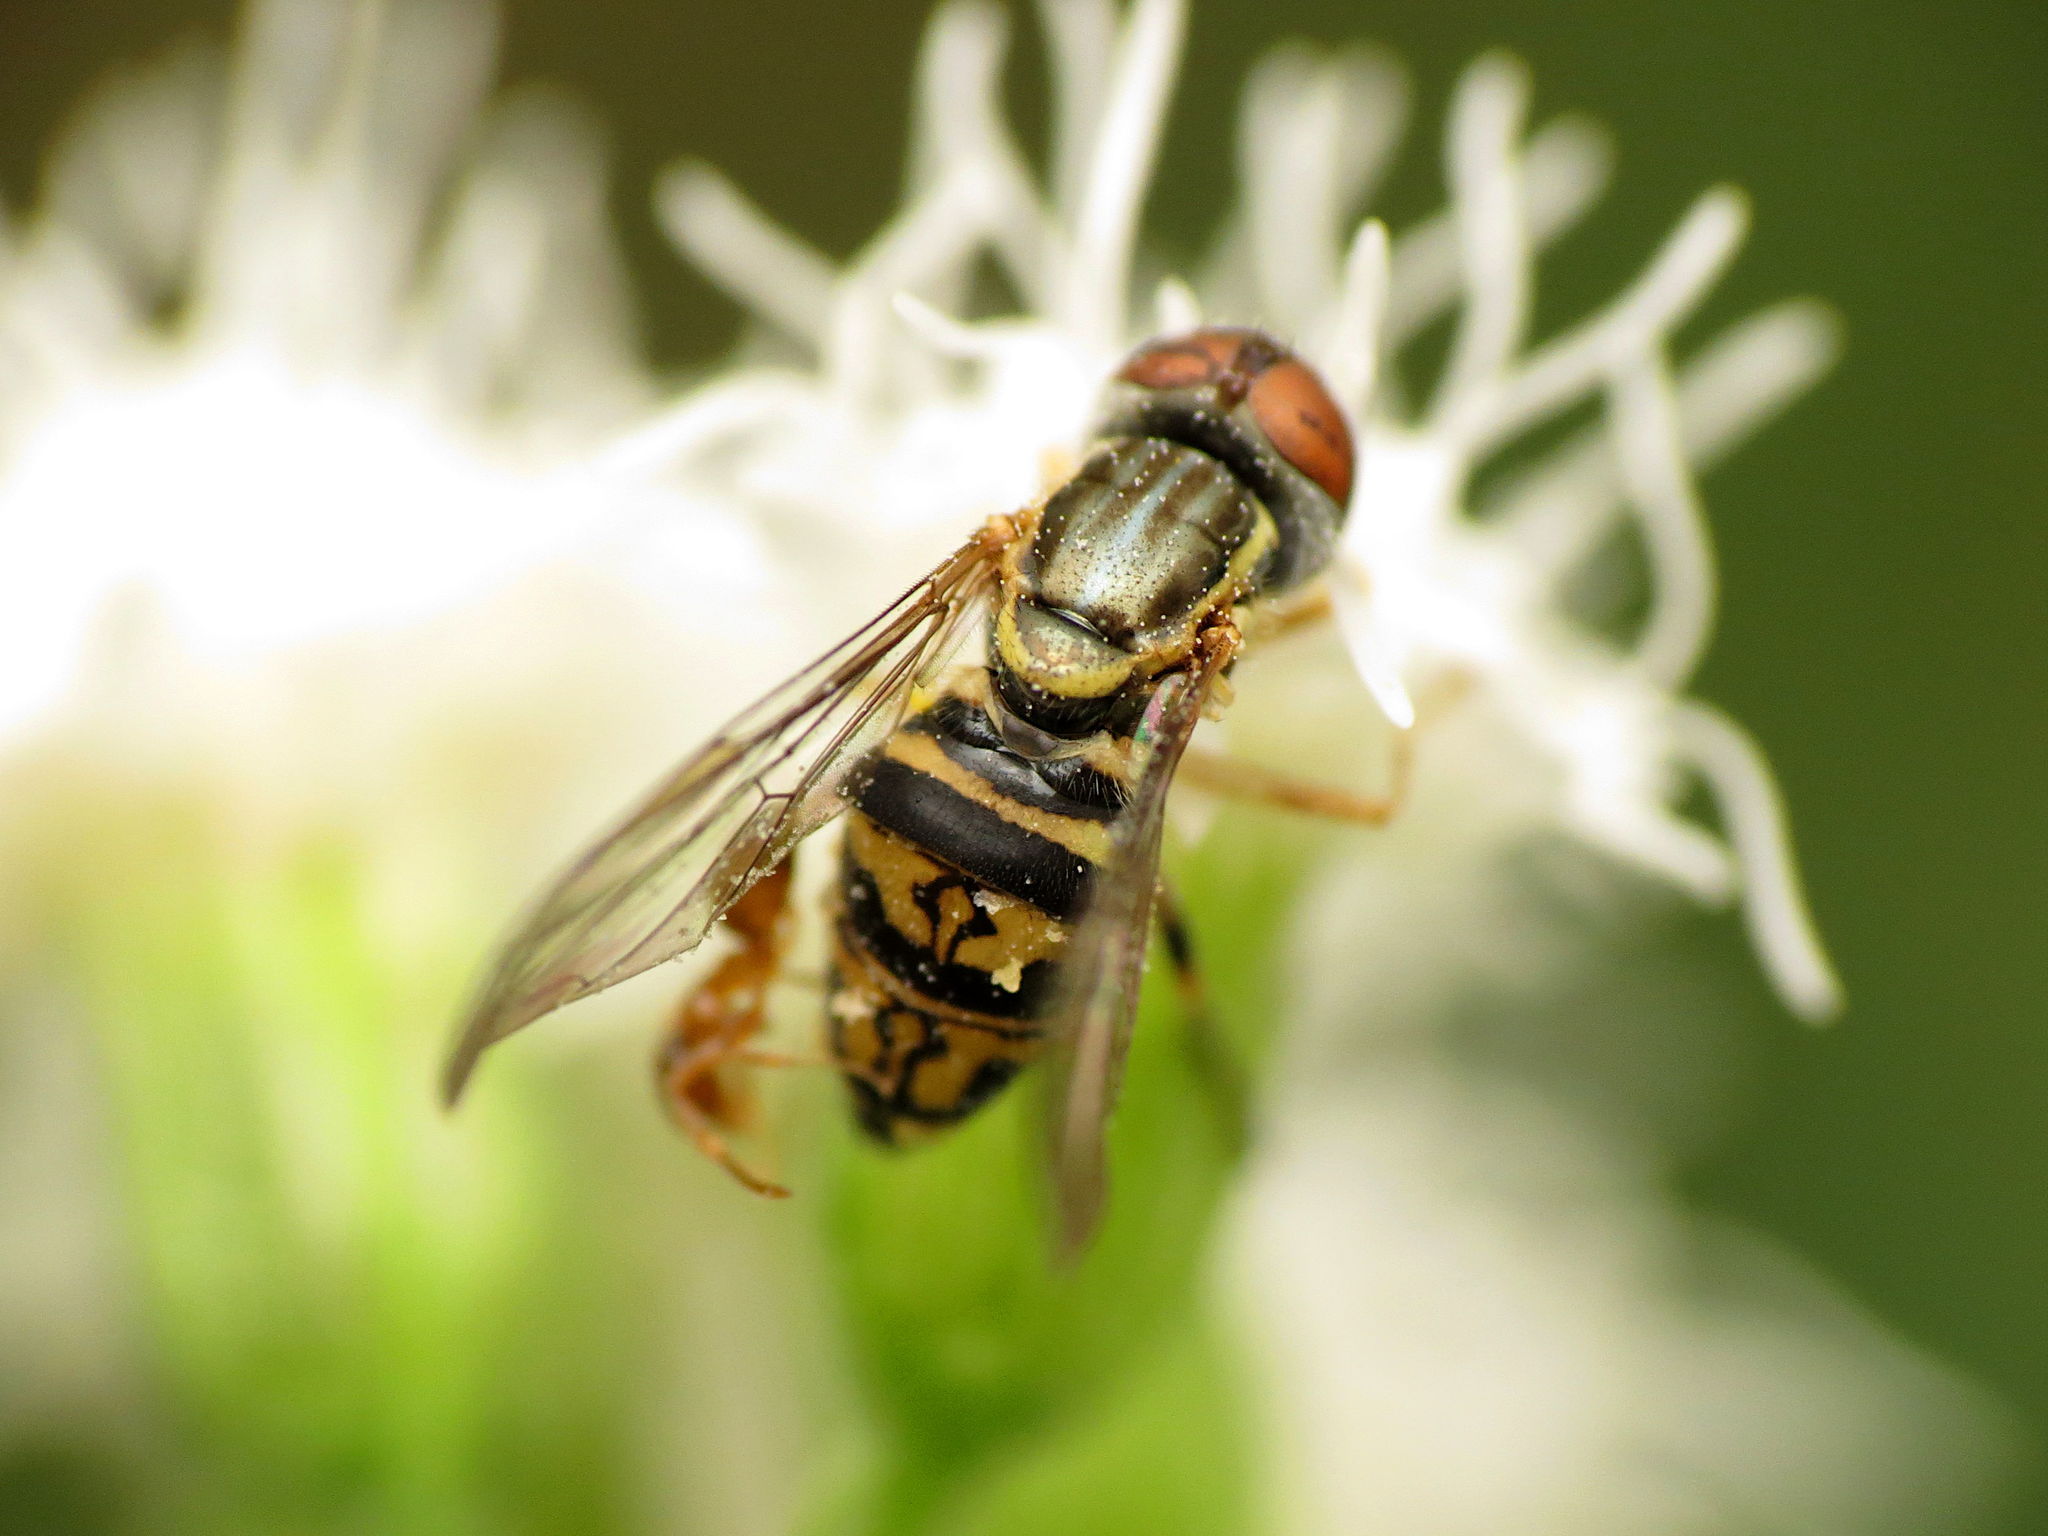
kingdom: Animalia
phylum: Arthropoda
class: Insecta
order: Diptera
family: Syrphidae
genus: Toxomerus
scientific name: Toxomerus geminatus
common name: Eastern calligrapher
